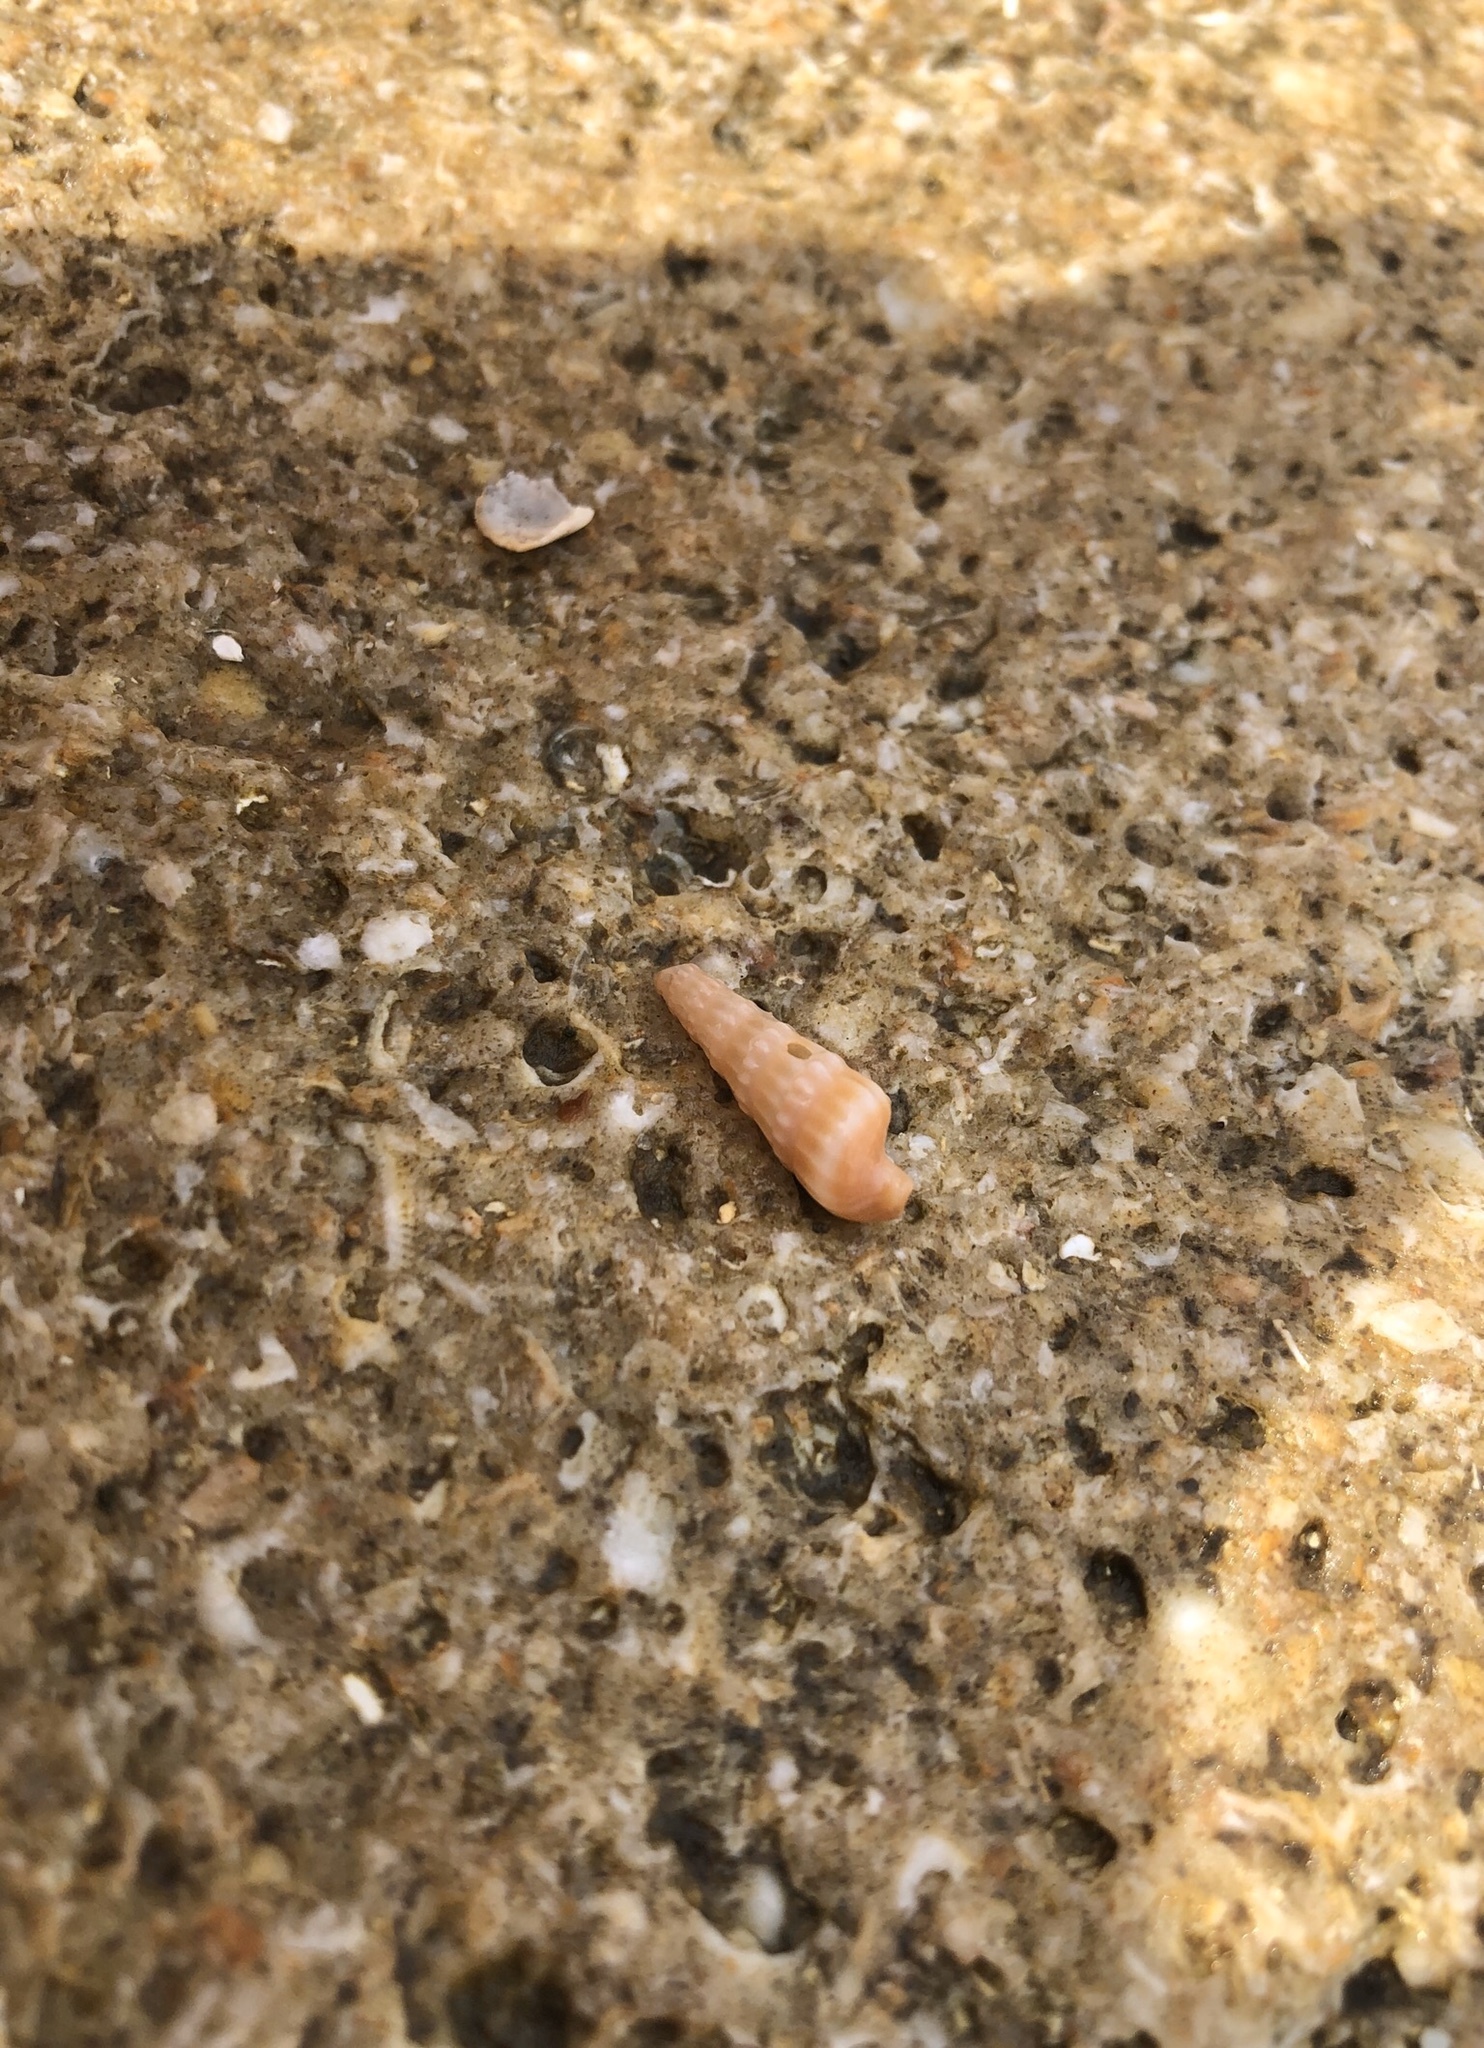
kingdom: Animalia
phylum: Mollusca
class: Gastropoda
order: Neogastropoda
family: Terebridae
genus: Neoterebra
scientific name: Neoterebra dislocata
